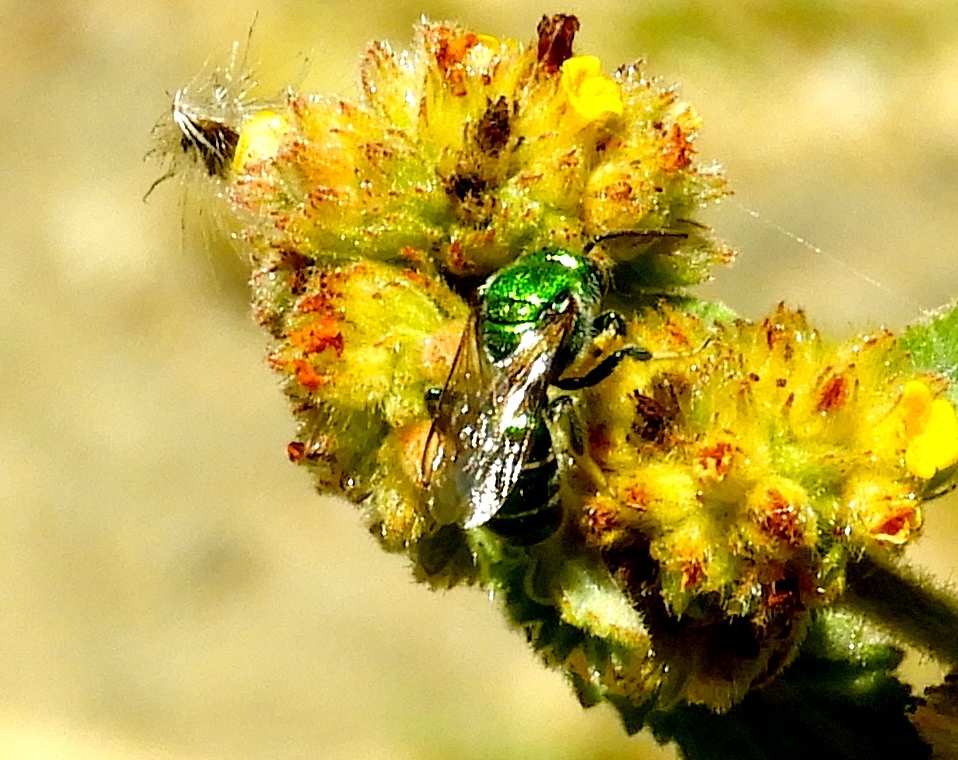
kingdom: Animalia
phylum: Arthropoda
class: Insecta
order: Hymenoptera
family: Halictidae
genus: Augochloropsis
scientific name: Augochloropsis
